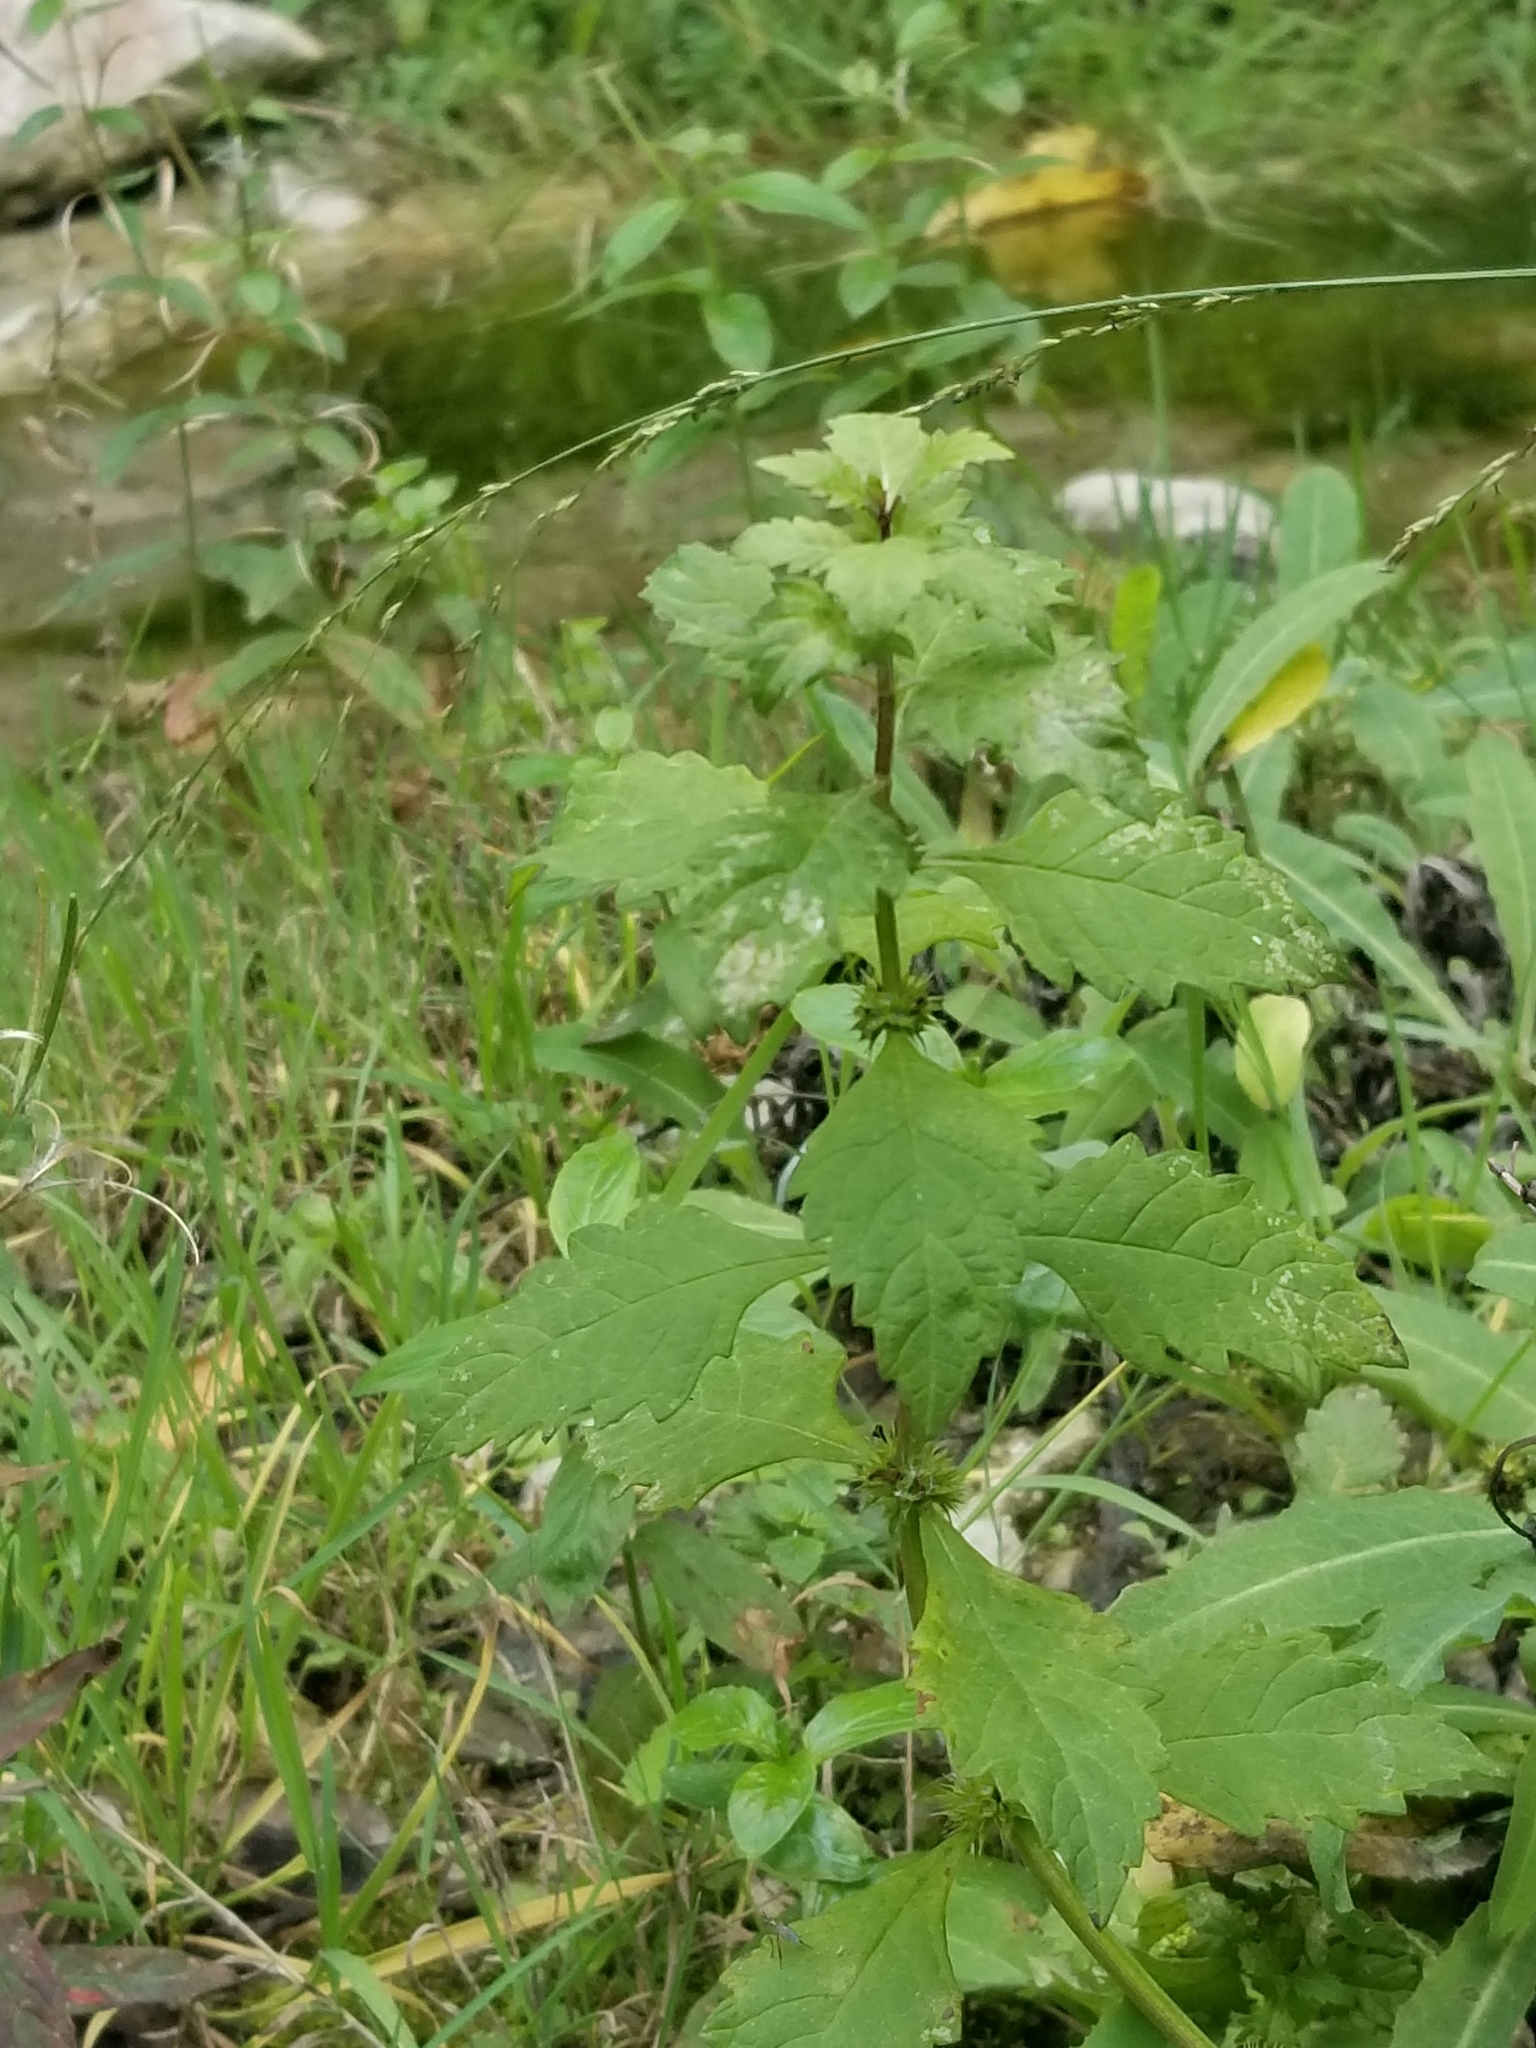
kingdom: Plantae
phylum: Tracheophyta
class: Magnoliopsida
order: Lamiales
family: Lamiaceae
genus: Lycopus
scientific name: Lycopus europaeus
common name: European bugleweed
